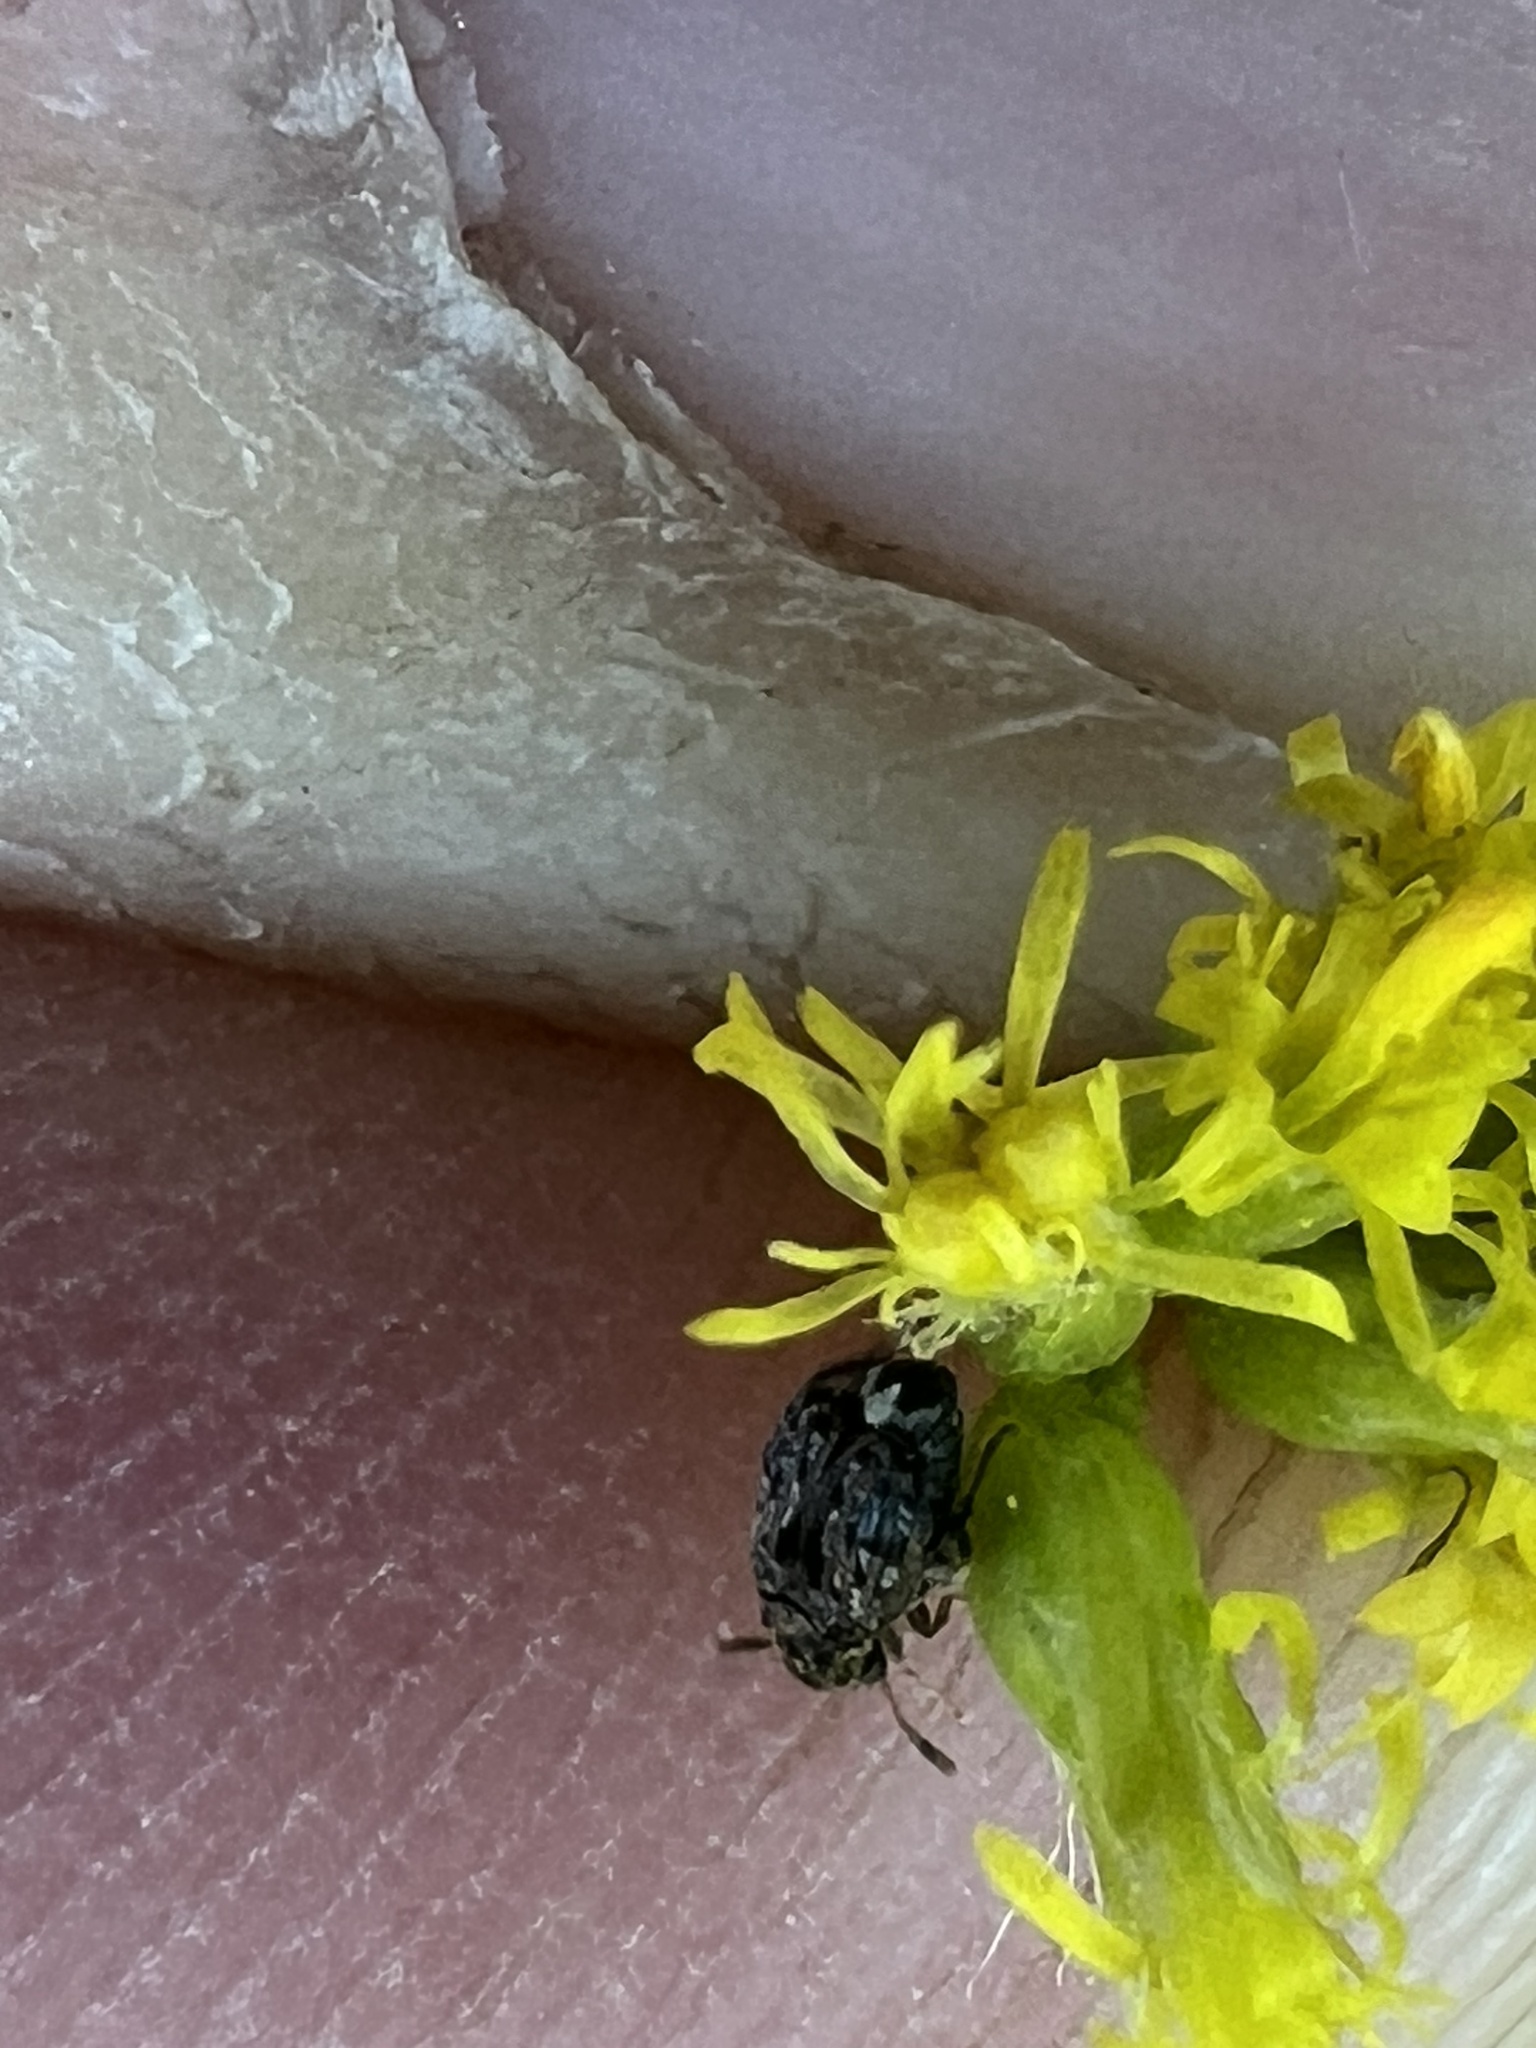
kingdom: Animalia
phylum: Arthropoda
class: Insecta
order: Coleoptera
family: Chrysomelidae
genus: Gibbobruchus
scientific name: Gibbobruchus mimus
